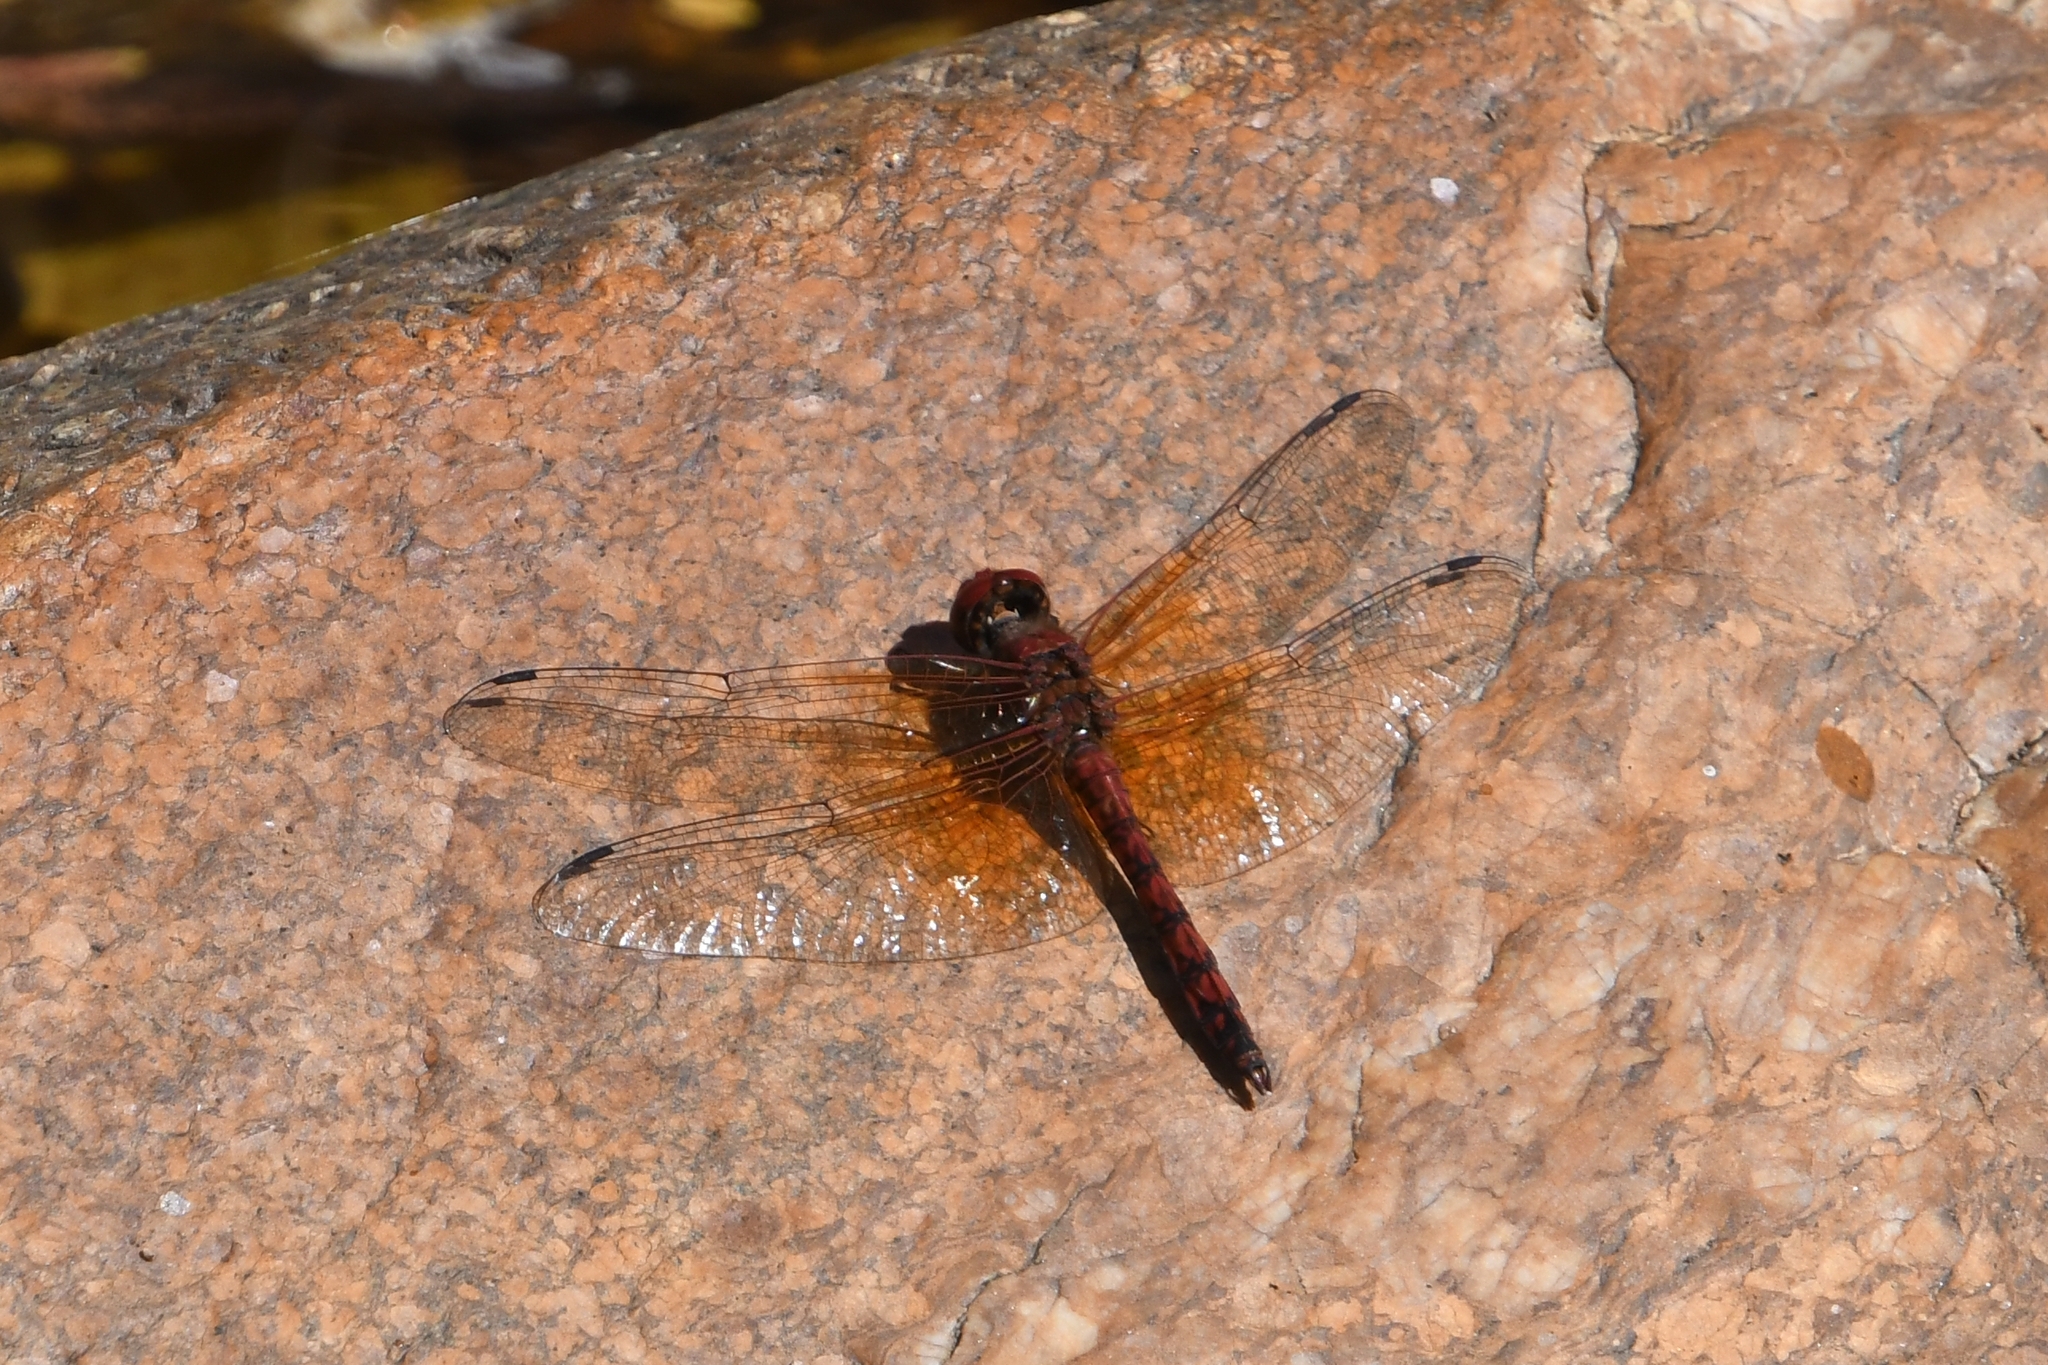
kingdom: Animalia
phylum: Arthropoda
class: Insecta
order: Odonata
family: Libellulidae
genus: Paltothemis
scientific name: Paltothemis lineatipes
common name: Red rock skimmer
